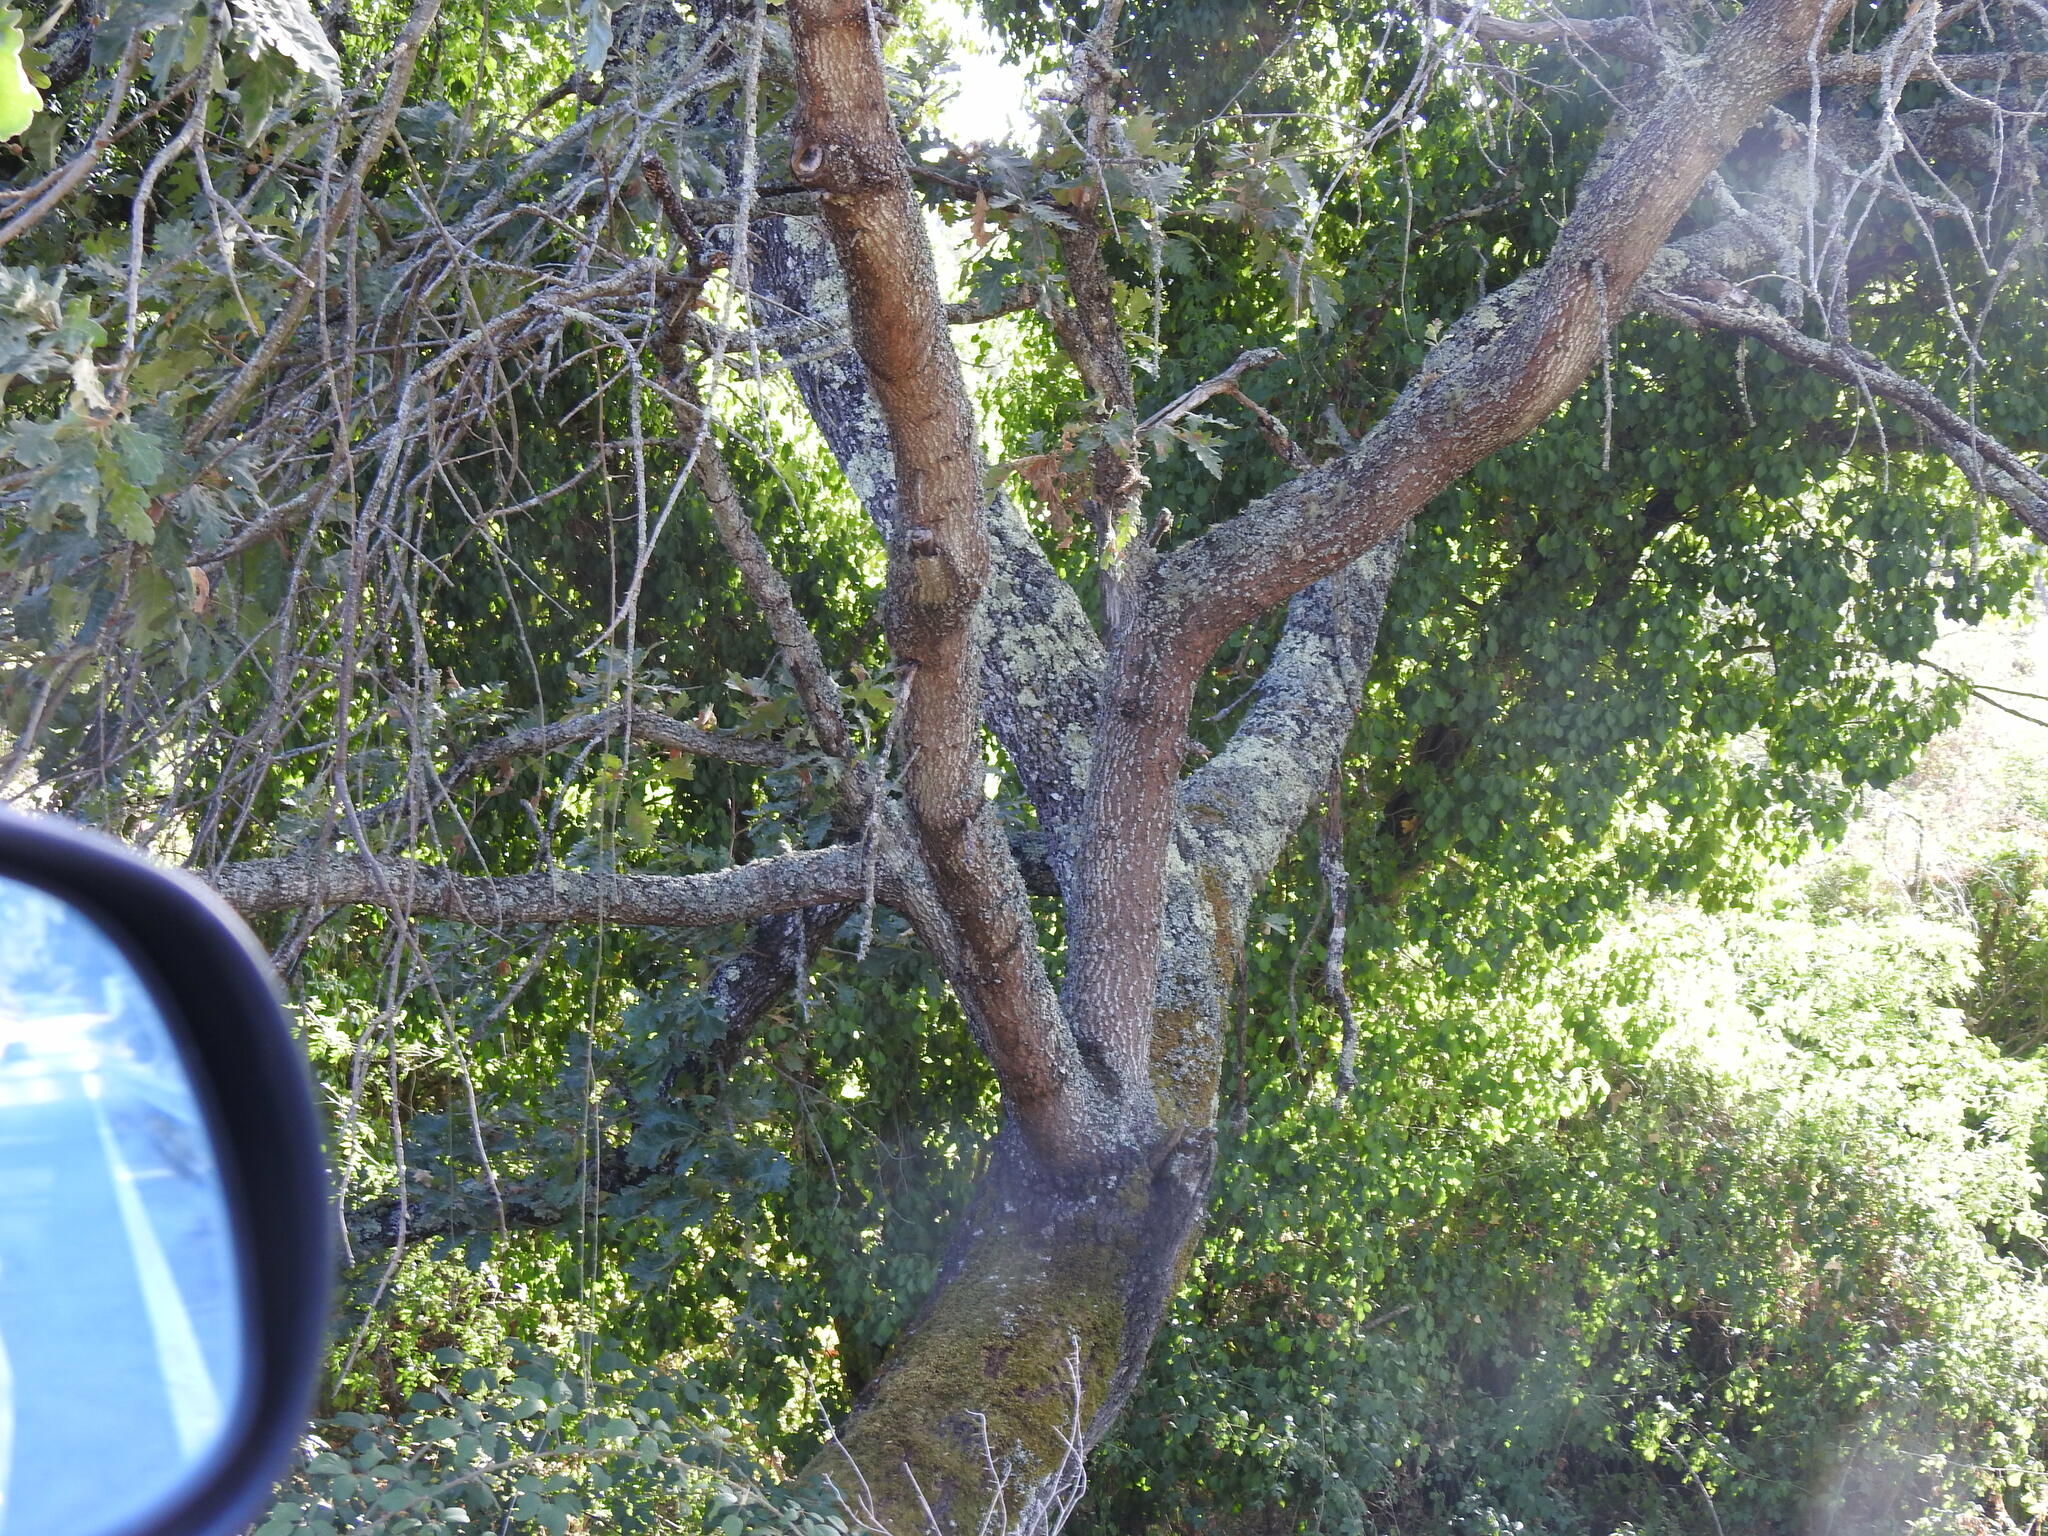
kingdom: Plantae
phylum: Tracheophyta
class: Magnoliopsida
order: Fagales
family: Fagaceae
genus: Quercus
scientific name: Quercus pyrenaica
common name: Pyrenean oak
